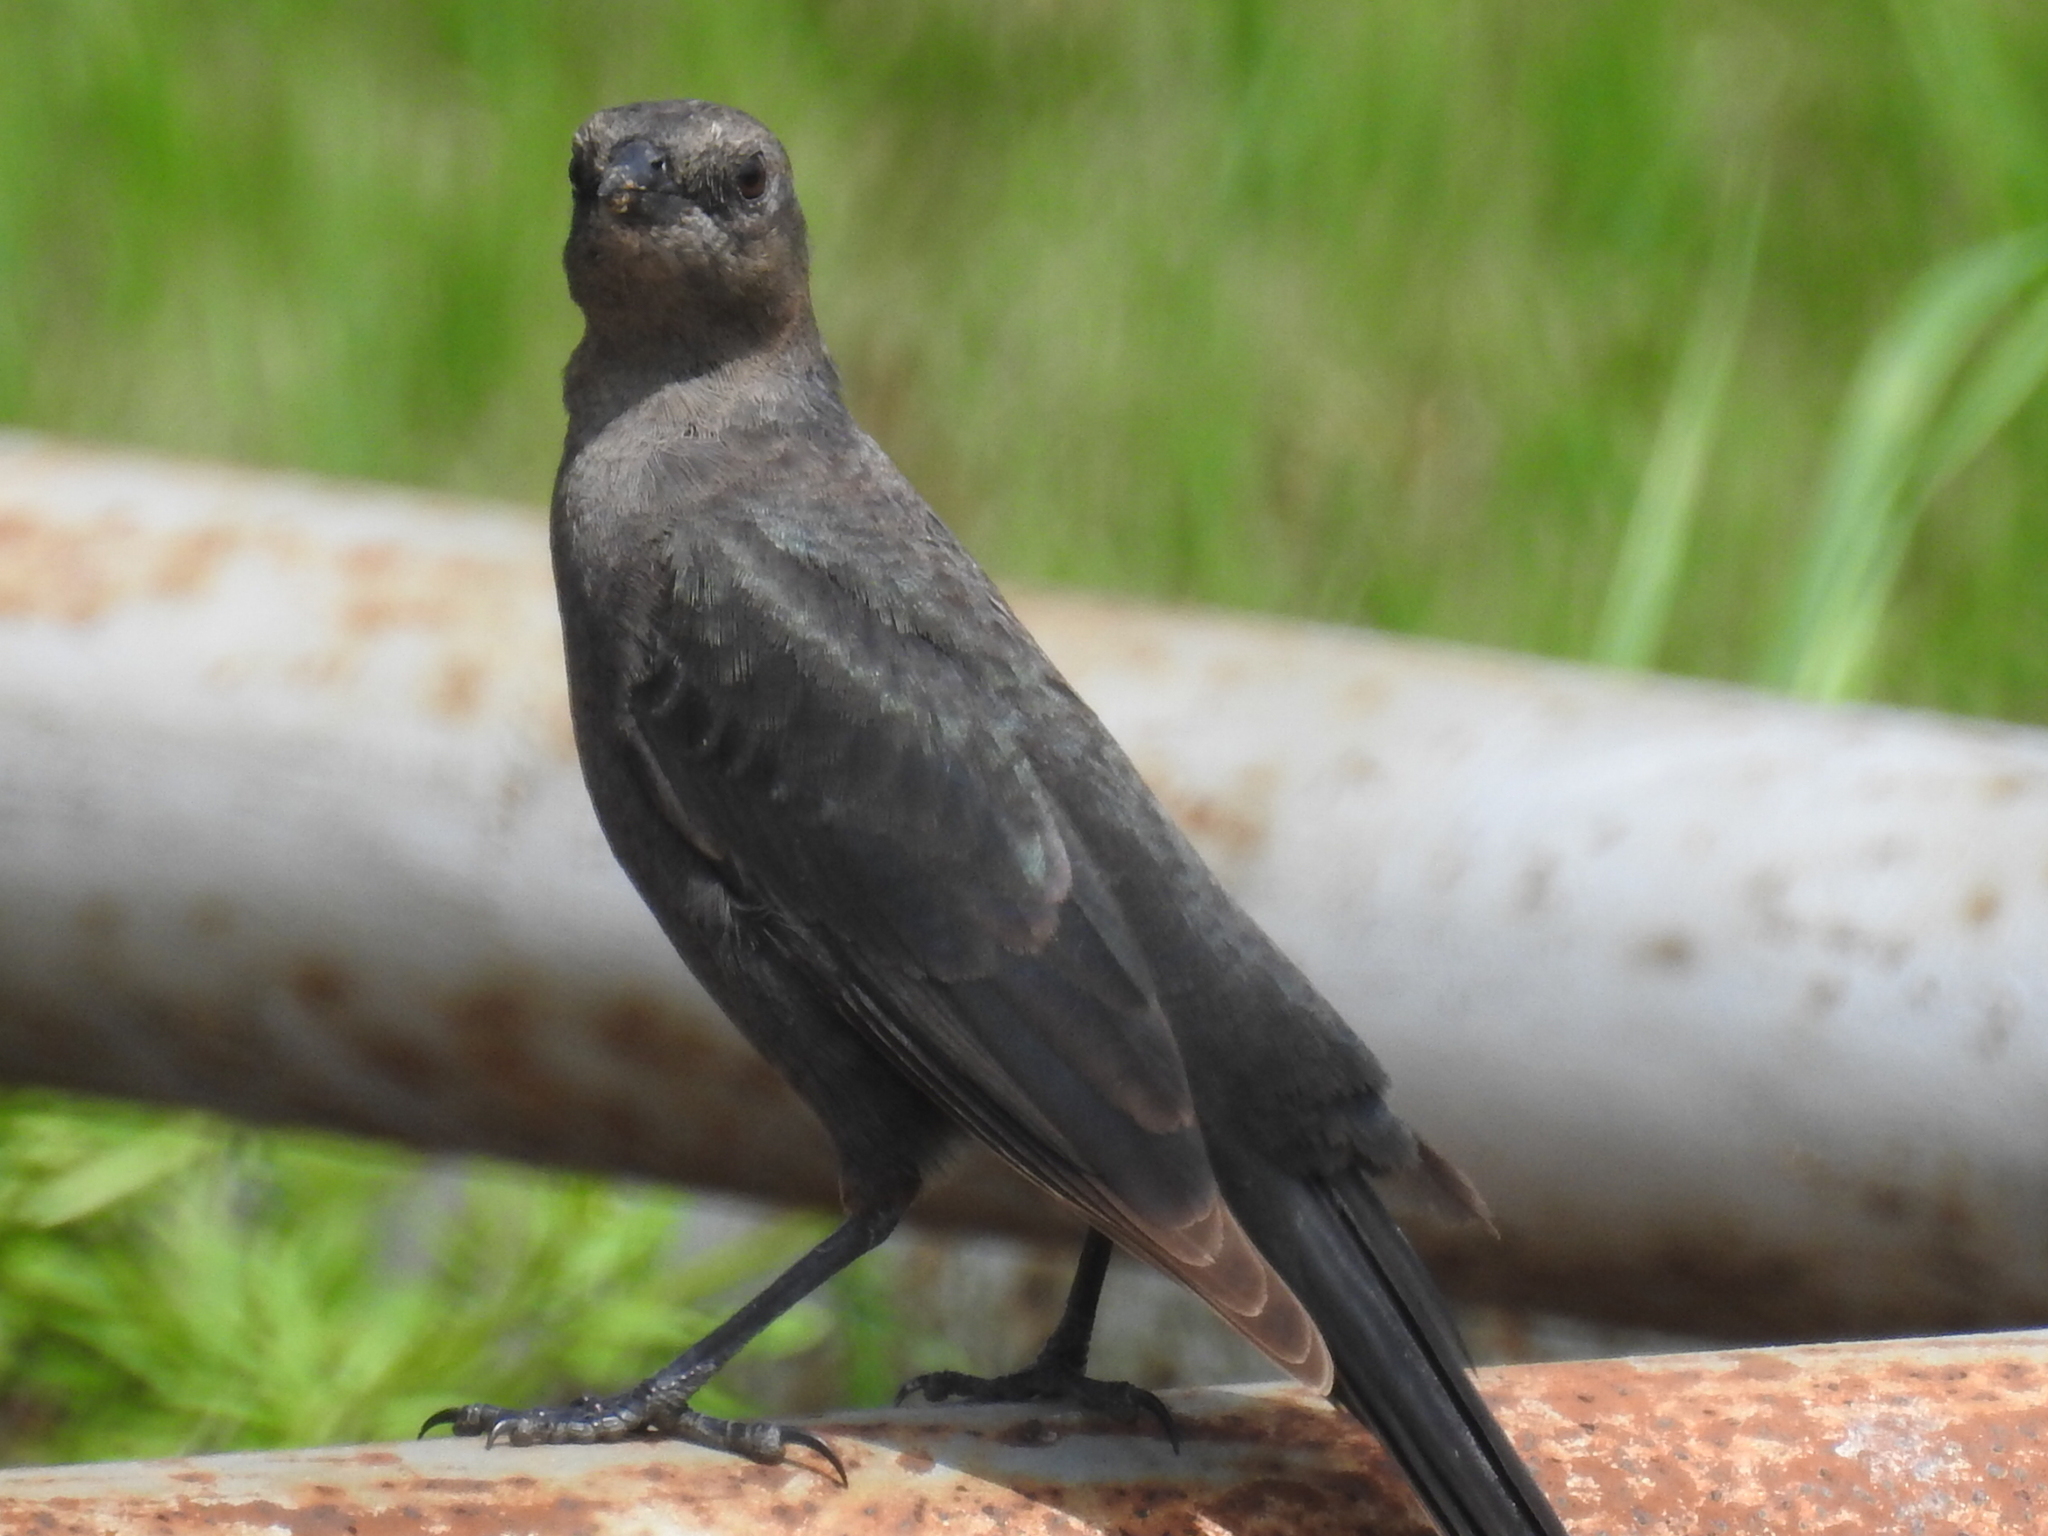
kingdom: Animalia
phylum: Chordata
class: Aves
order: Passeriformes
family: Icteridae
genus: Euphagus
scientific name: Euphagus cyanocephalus
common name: Brewer's blackbird
